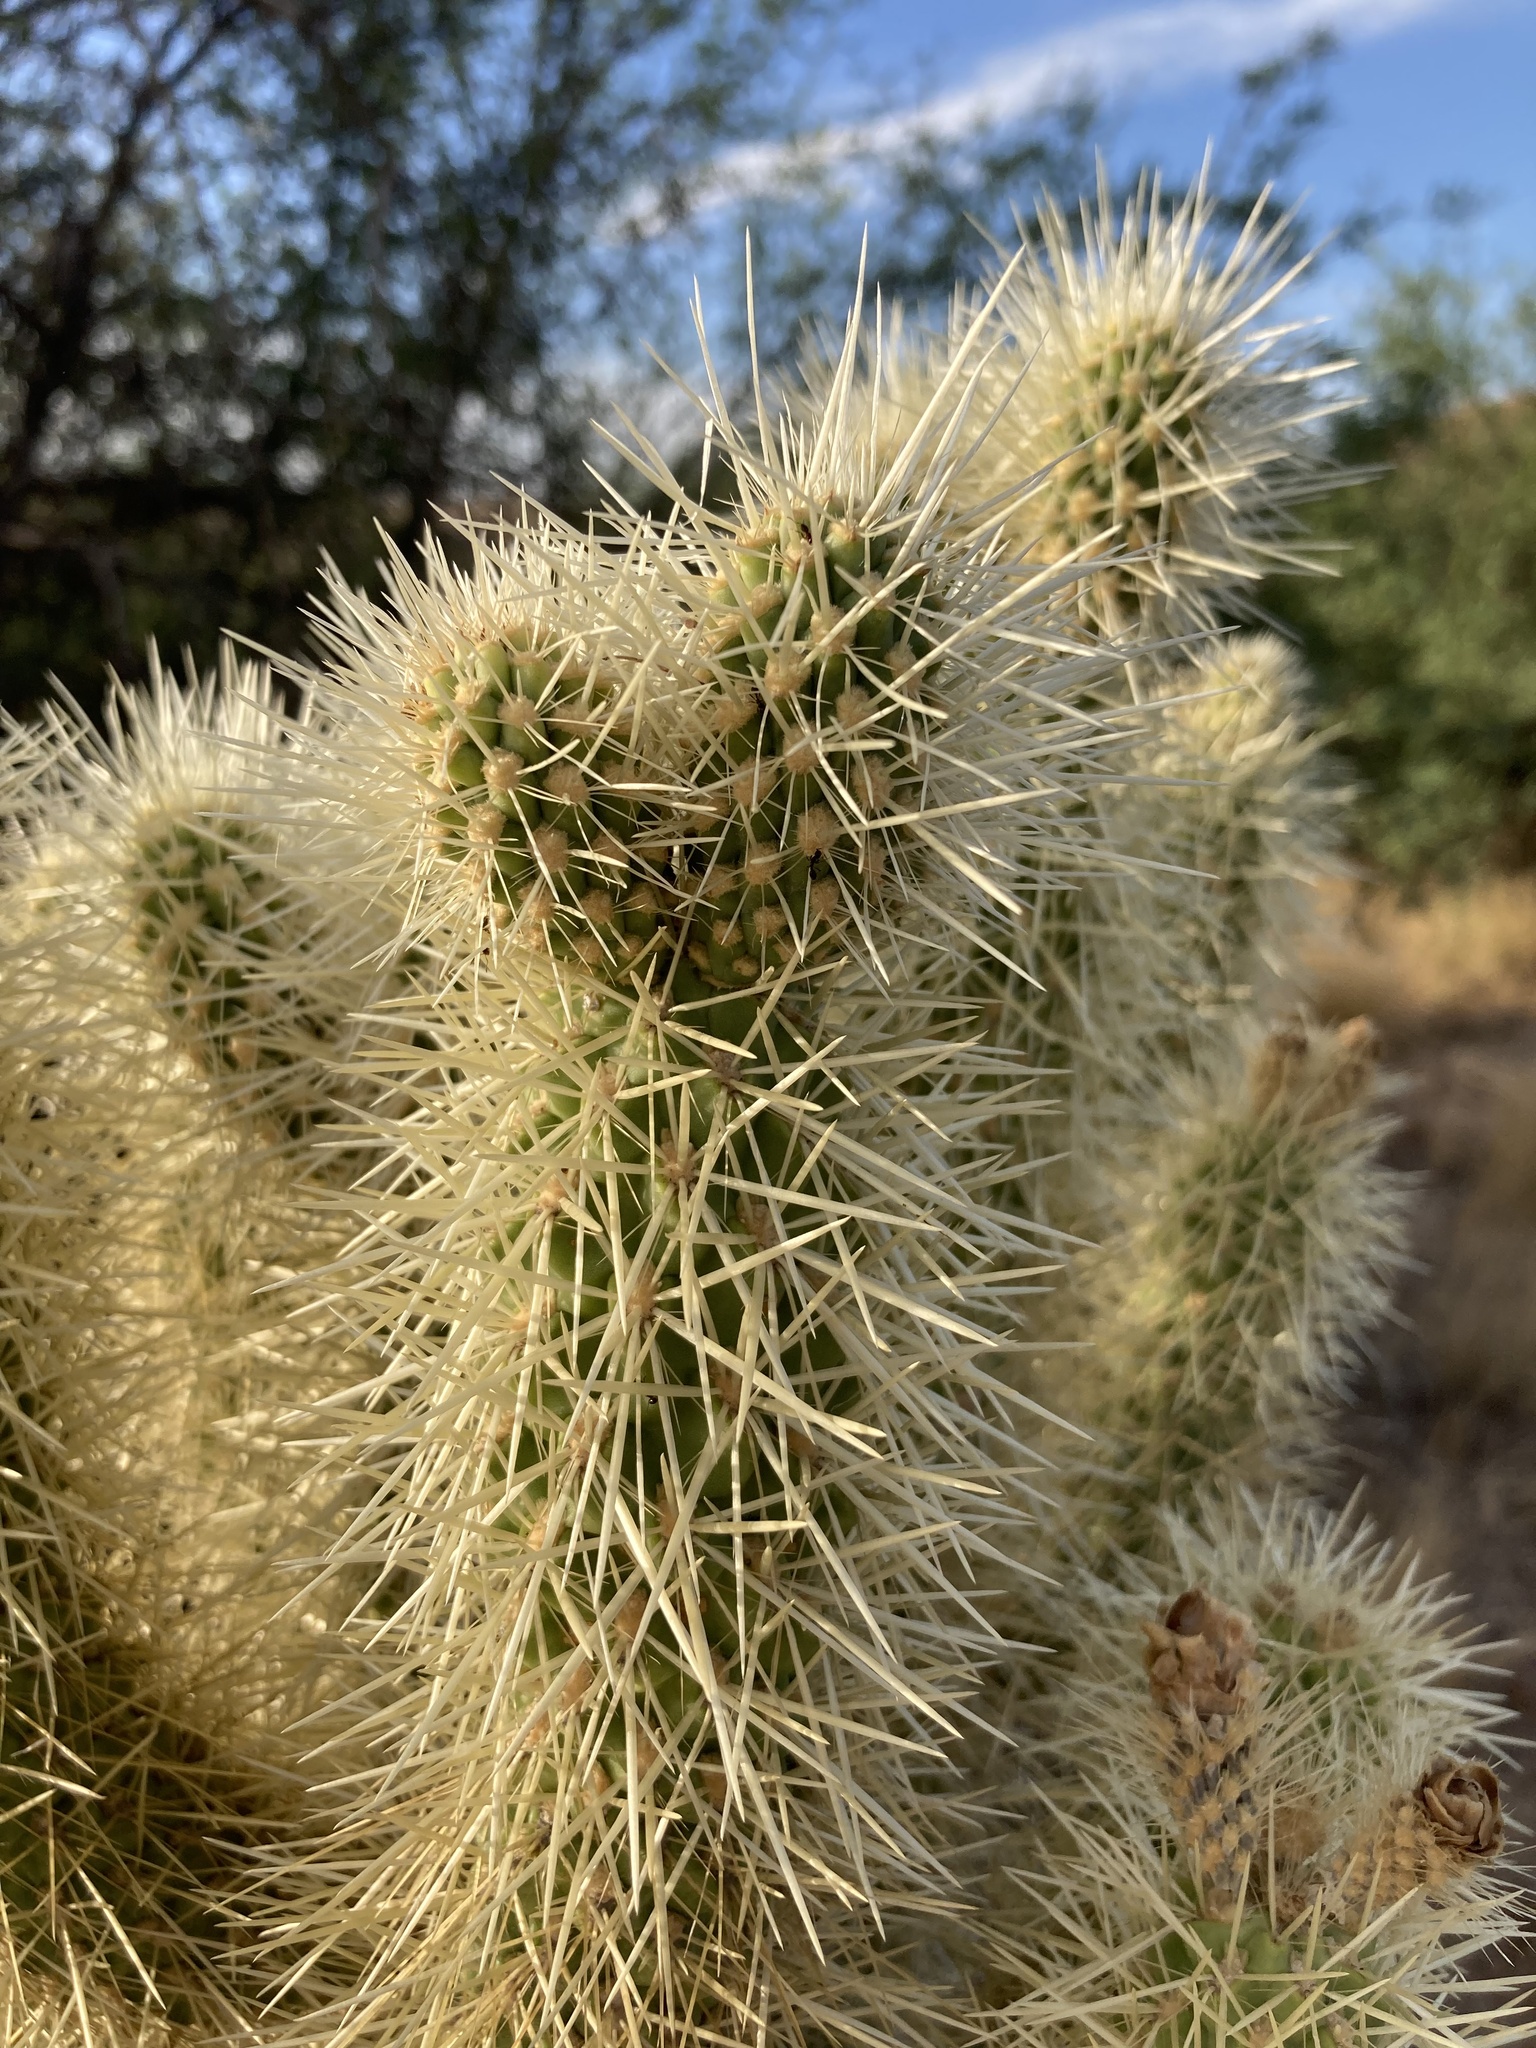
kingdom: Plantae
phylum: Tracheophyta
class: Magnoliopsida
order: Caryophyllales
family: Cactaceae
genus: Cylindropuntia
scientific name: Cylindropuntia fosbergii
